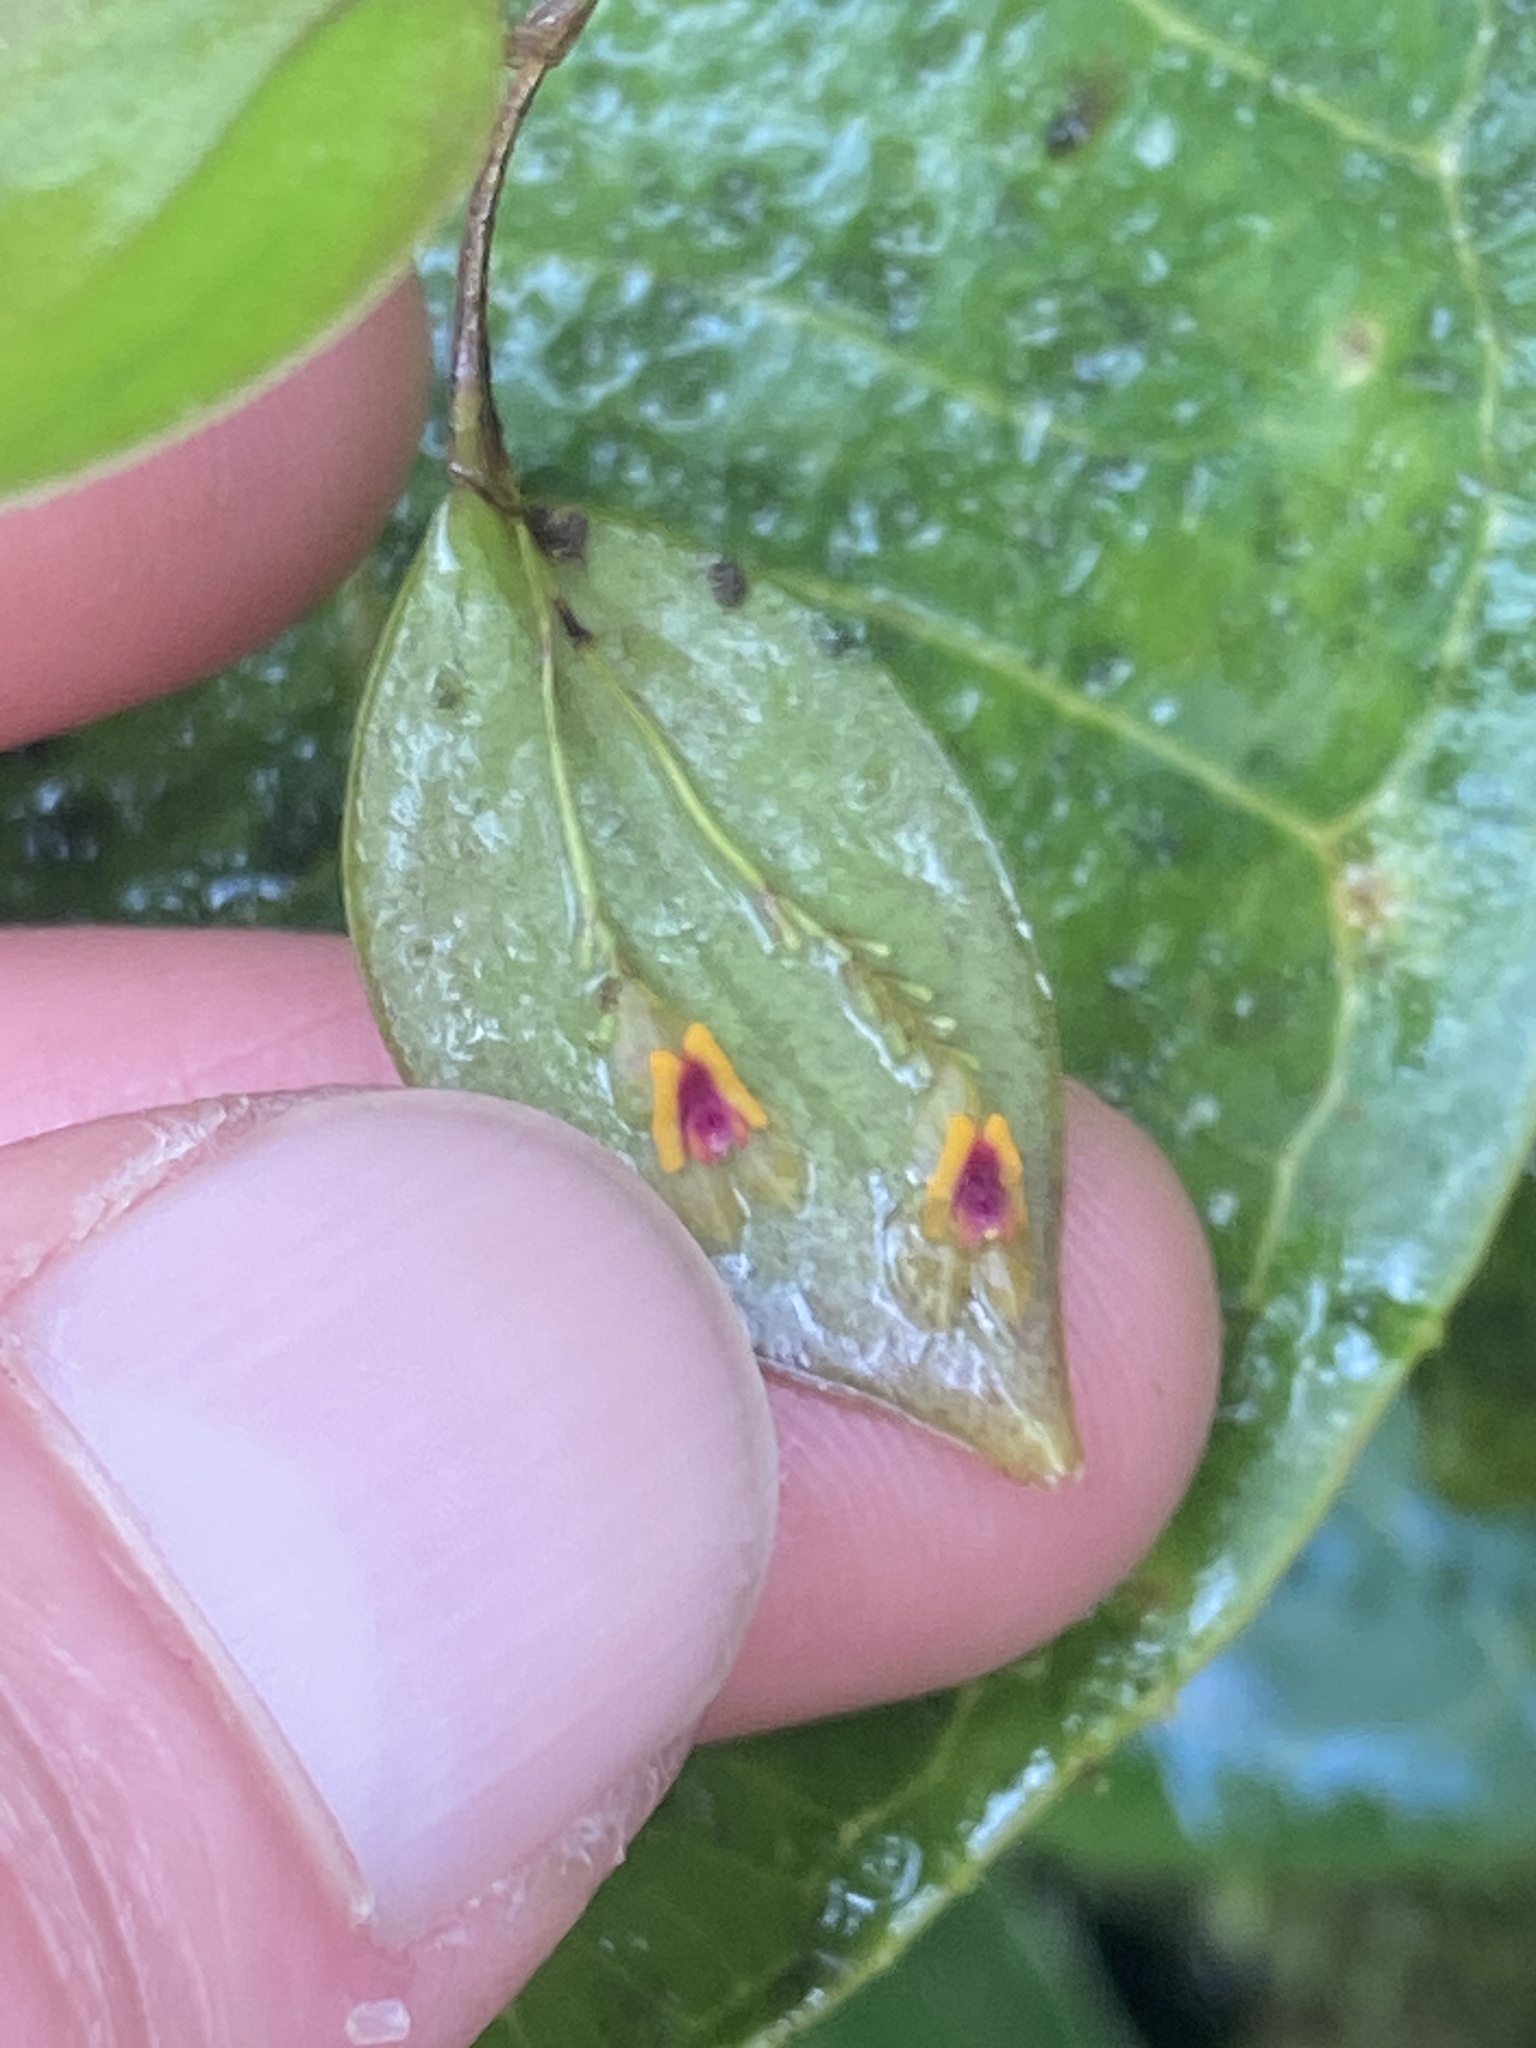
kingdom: Plantae
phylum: Tracheophyta
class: Liliopsida
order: Asparagales
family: Orchidaceae
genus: Lepanthes
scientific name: Lepanthes woodburyana
